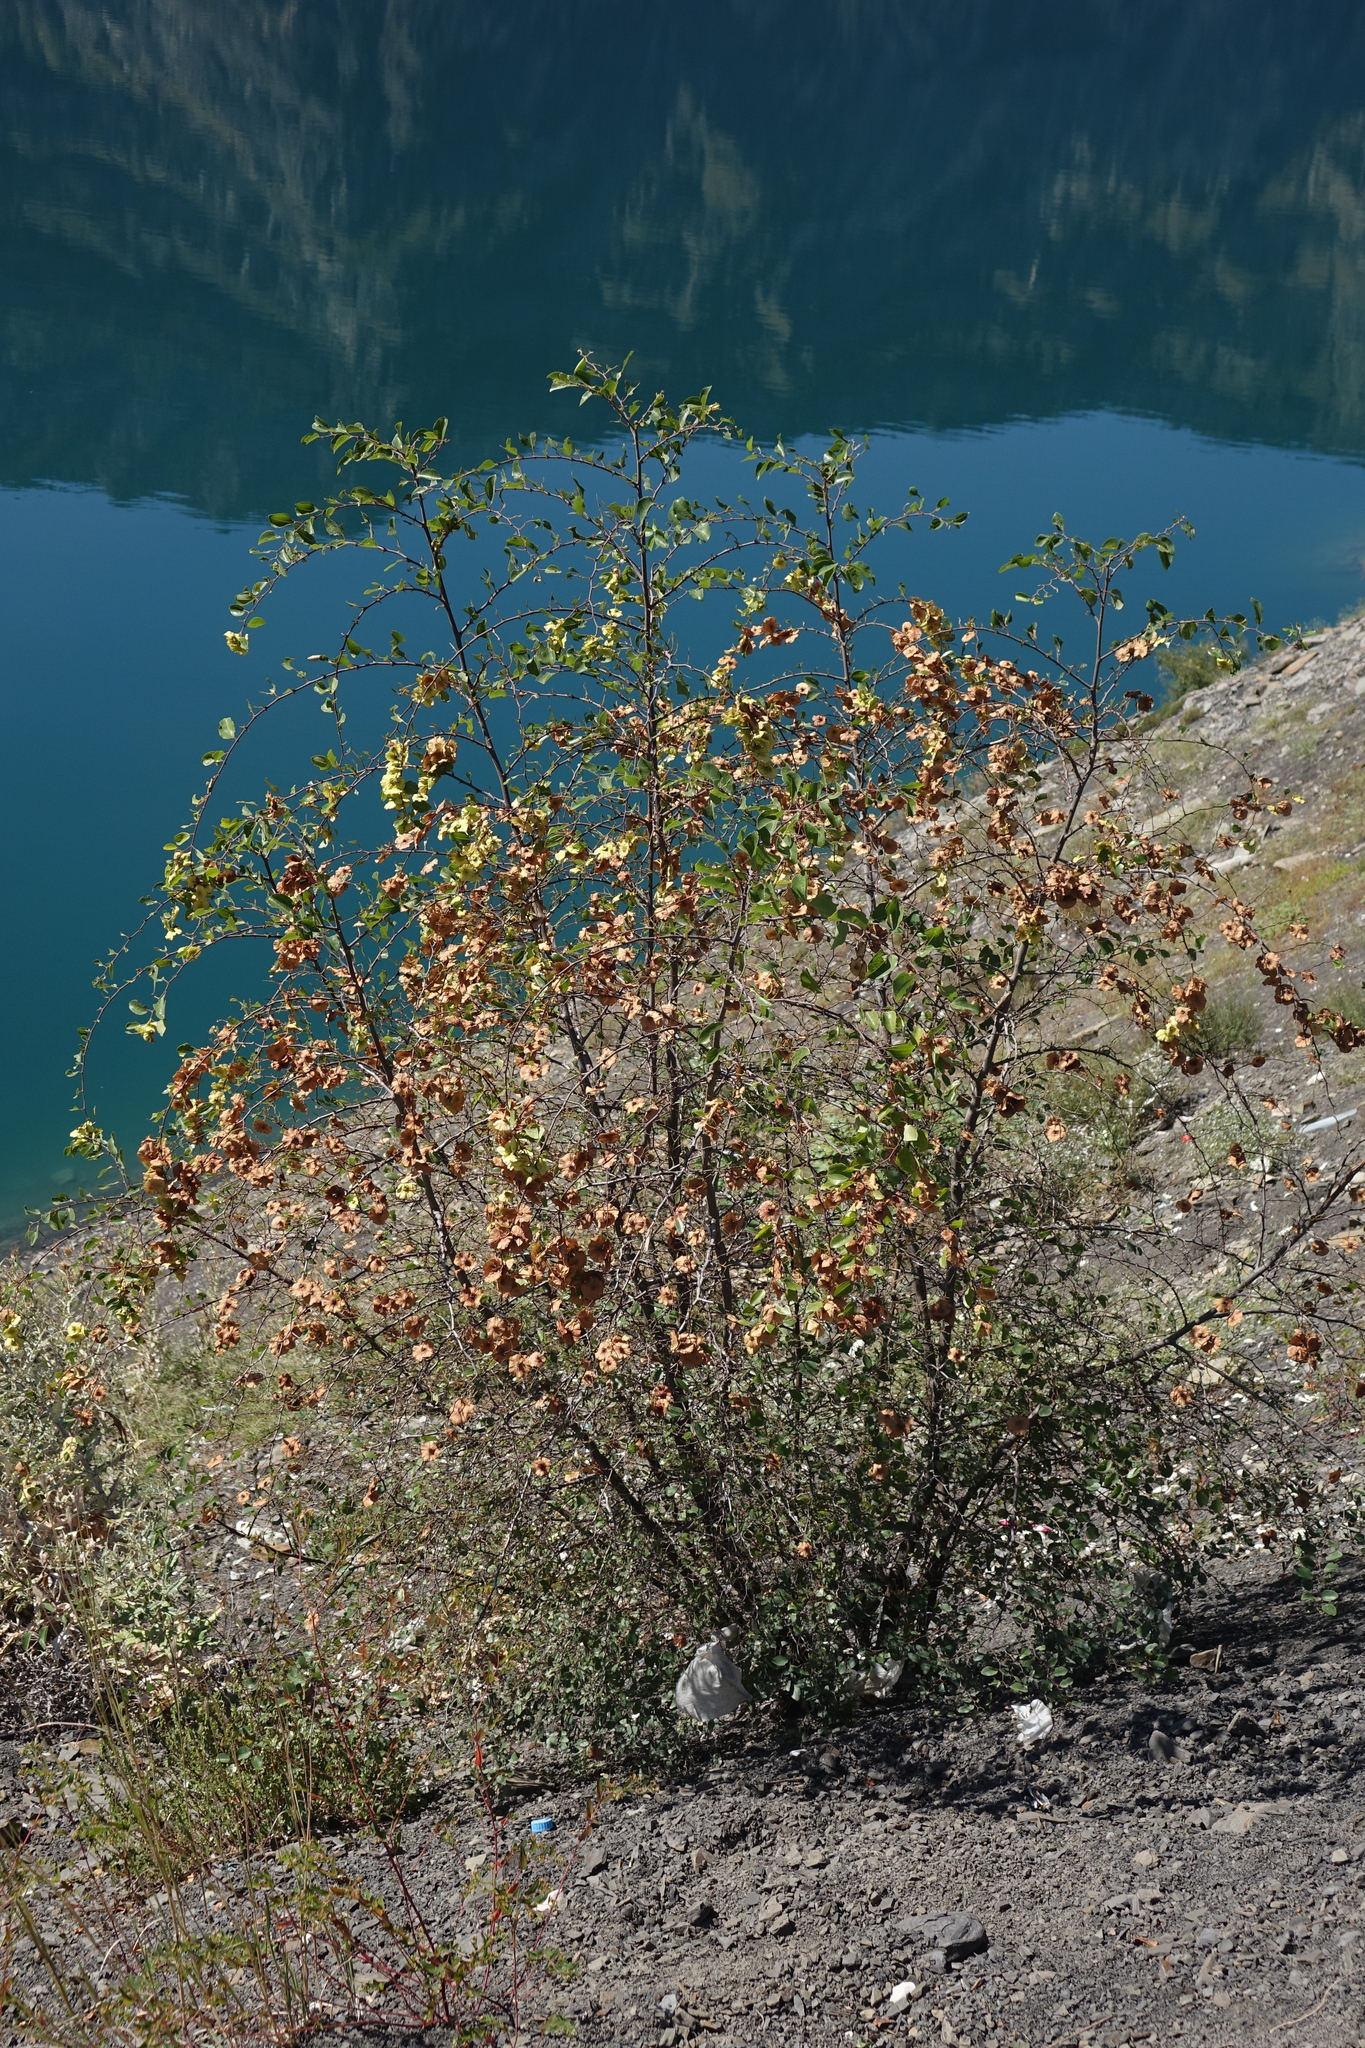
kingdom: Plantae
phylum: Tracheophyta
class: Magnoliopsida
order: Rosales
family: Rhamnaceae
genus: Paliurus
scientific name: Paliurus spina-christi
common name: Jeruselem thorn
